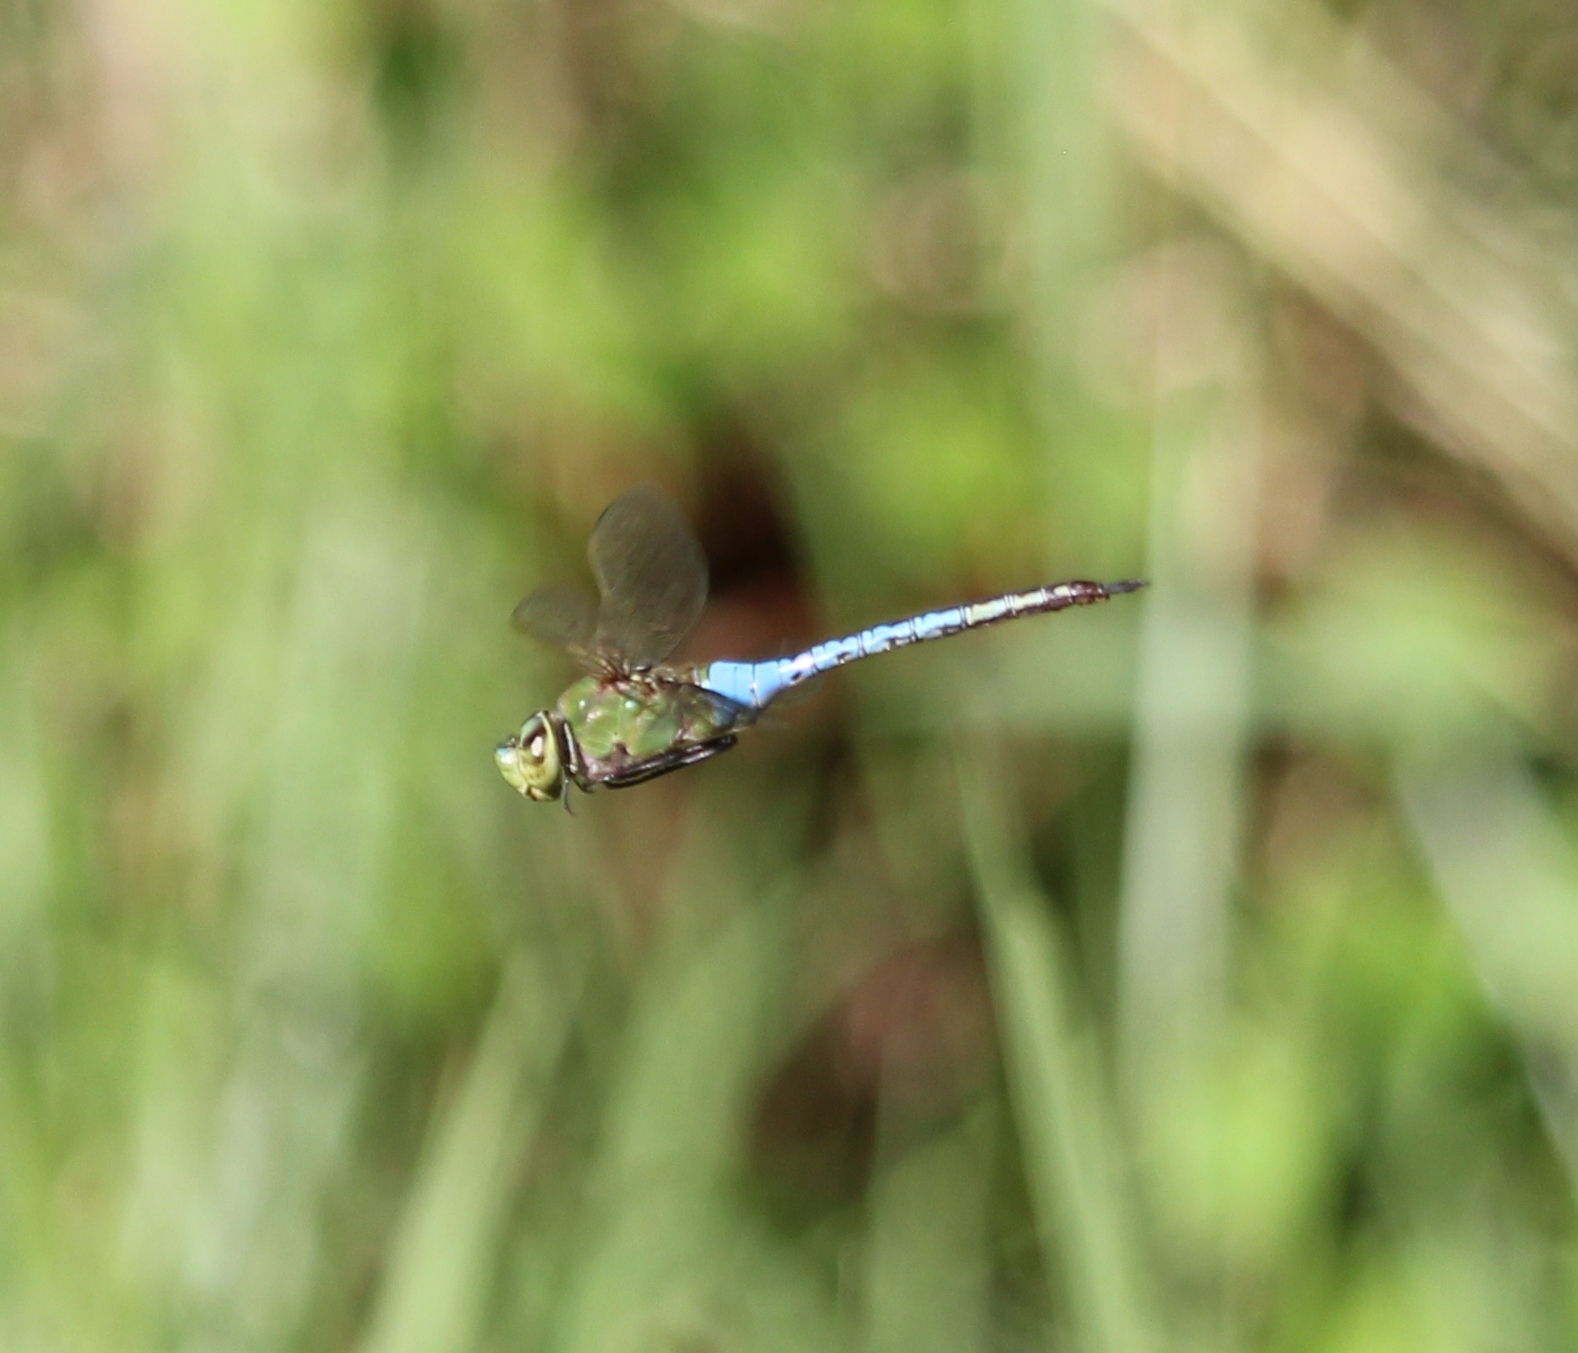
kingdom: Animalia
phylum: Arthropoda
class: Insecta
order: Odonata
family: Aeshnidae
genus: Anax
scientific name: Anax junius
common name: Common green darner
